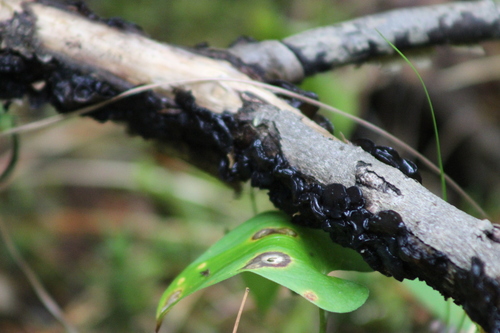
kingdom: Fungi
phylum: Basidiomycota
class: Agaricomycetes
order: Auriculariales
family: Auriculariaceae
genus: Exidia
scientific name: Exidia glandulosa
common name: Witches' butter
